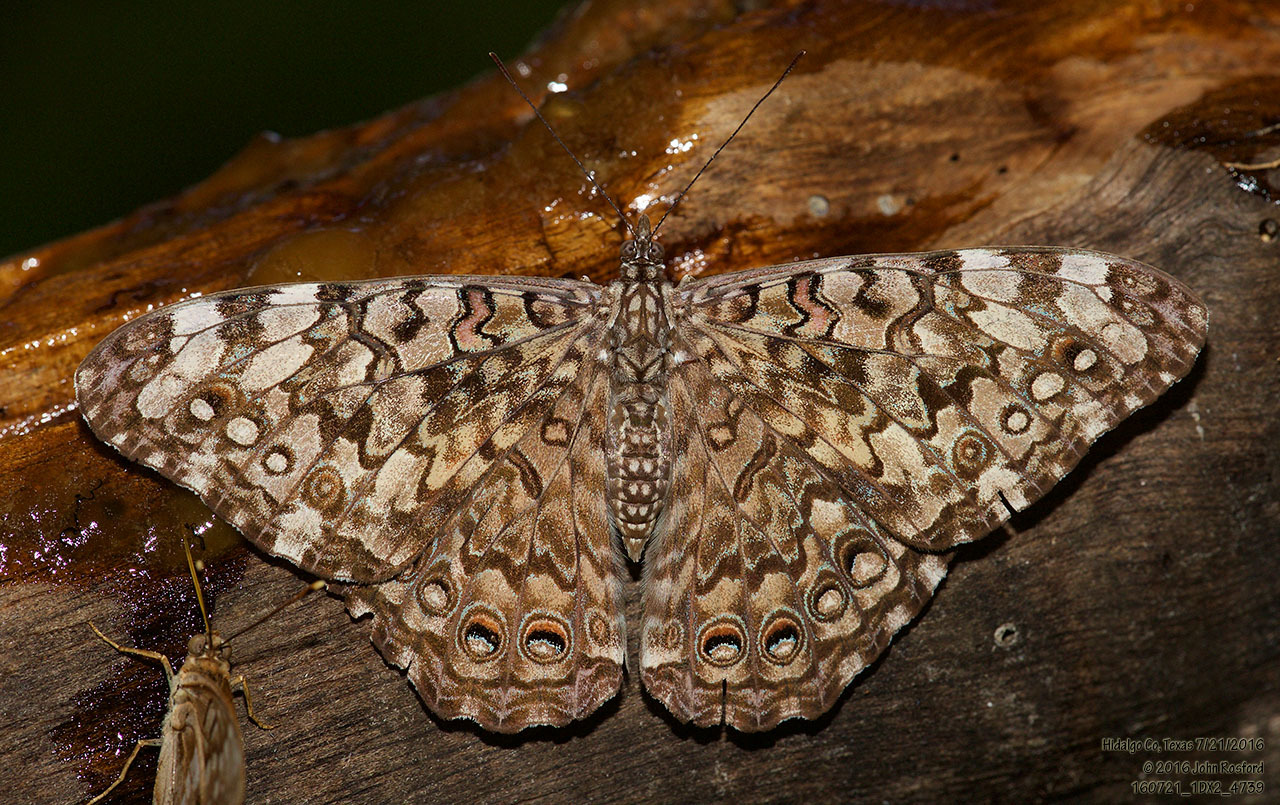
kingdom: Animalia
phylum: Arthropoda
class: Insecta
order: Lepidoptera
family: Nymphalidae
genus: Hamadryas
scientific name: Hamadryas februa
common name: Gray cracker
